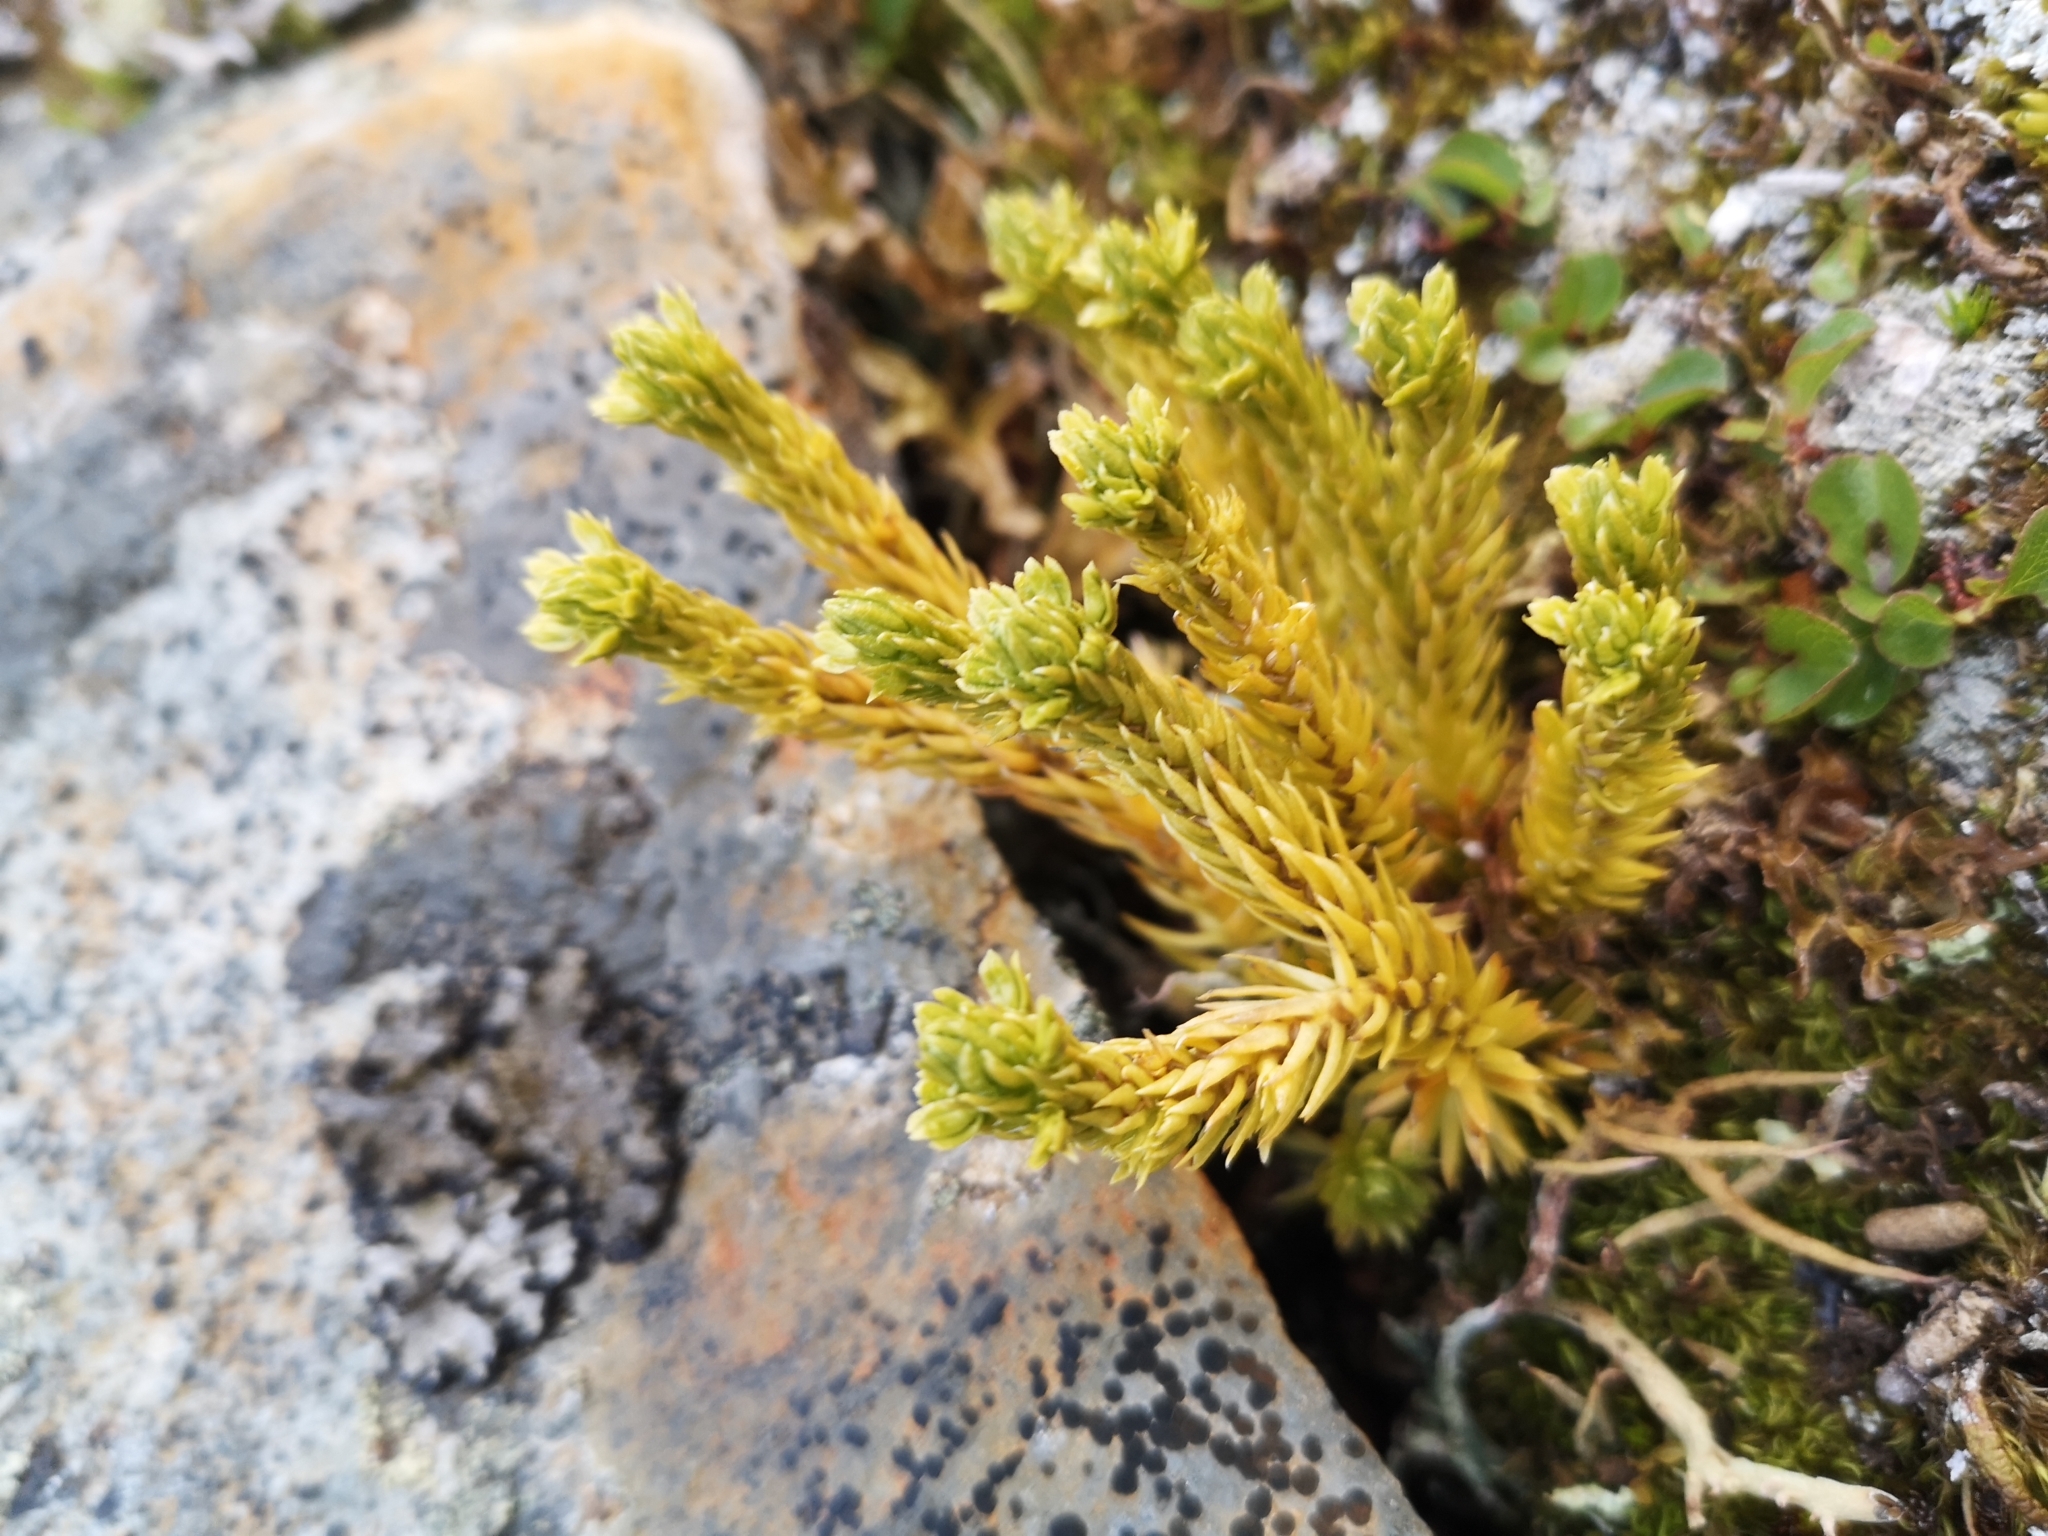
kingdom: Plantae
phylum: Tracheophyta
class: Lycopodiopsida
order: Lycopodiales
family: Lycopodiaceae
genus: Huperzia
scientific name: Huperzia selago
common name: Northern firmoss
